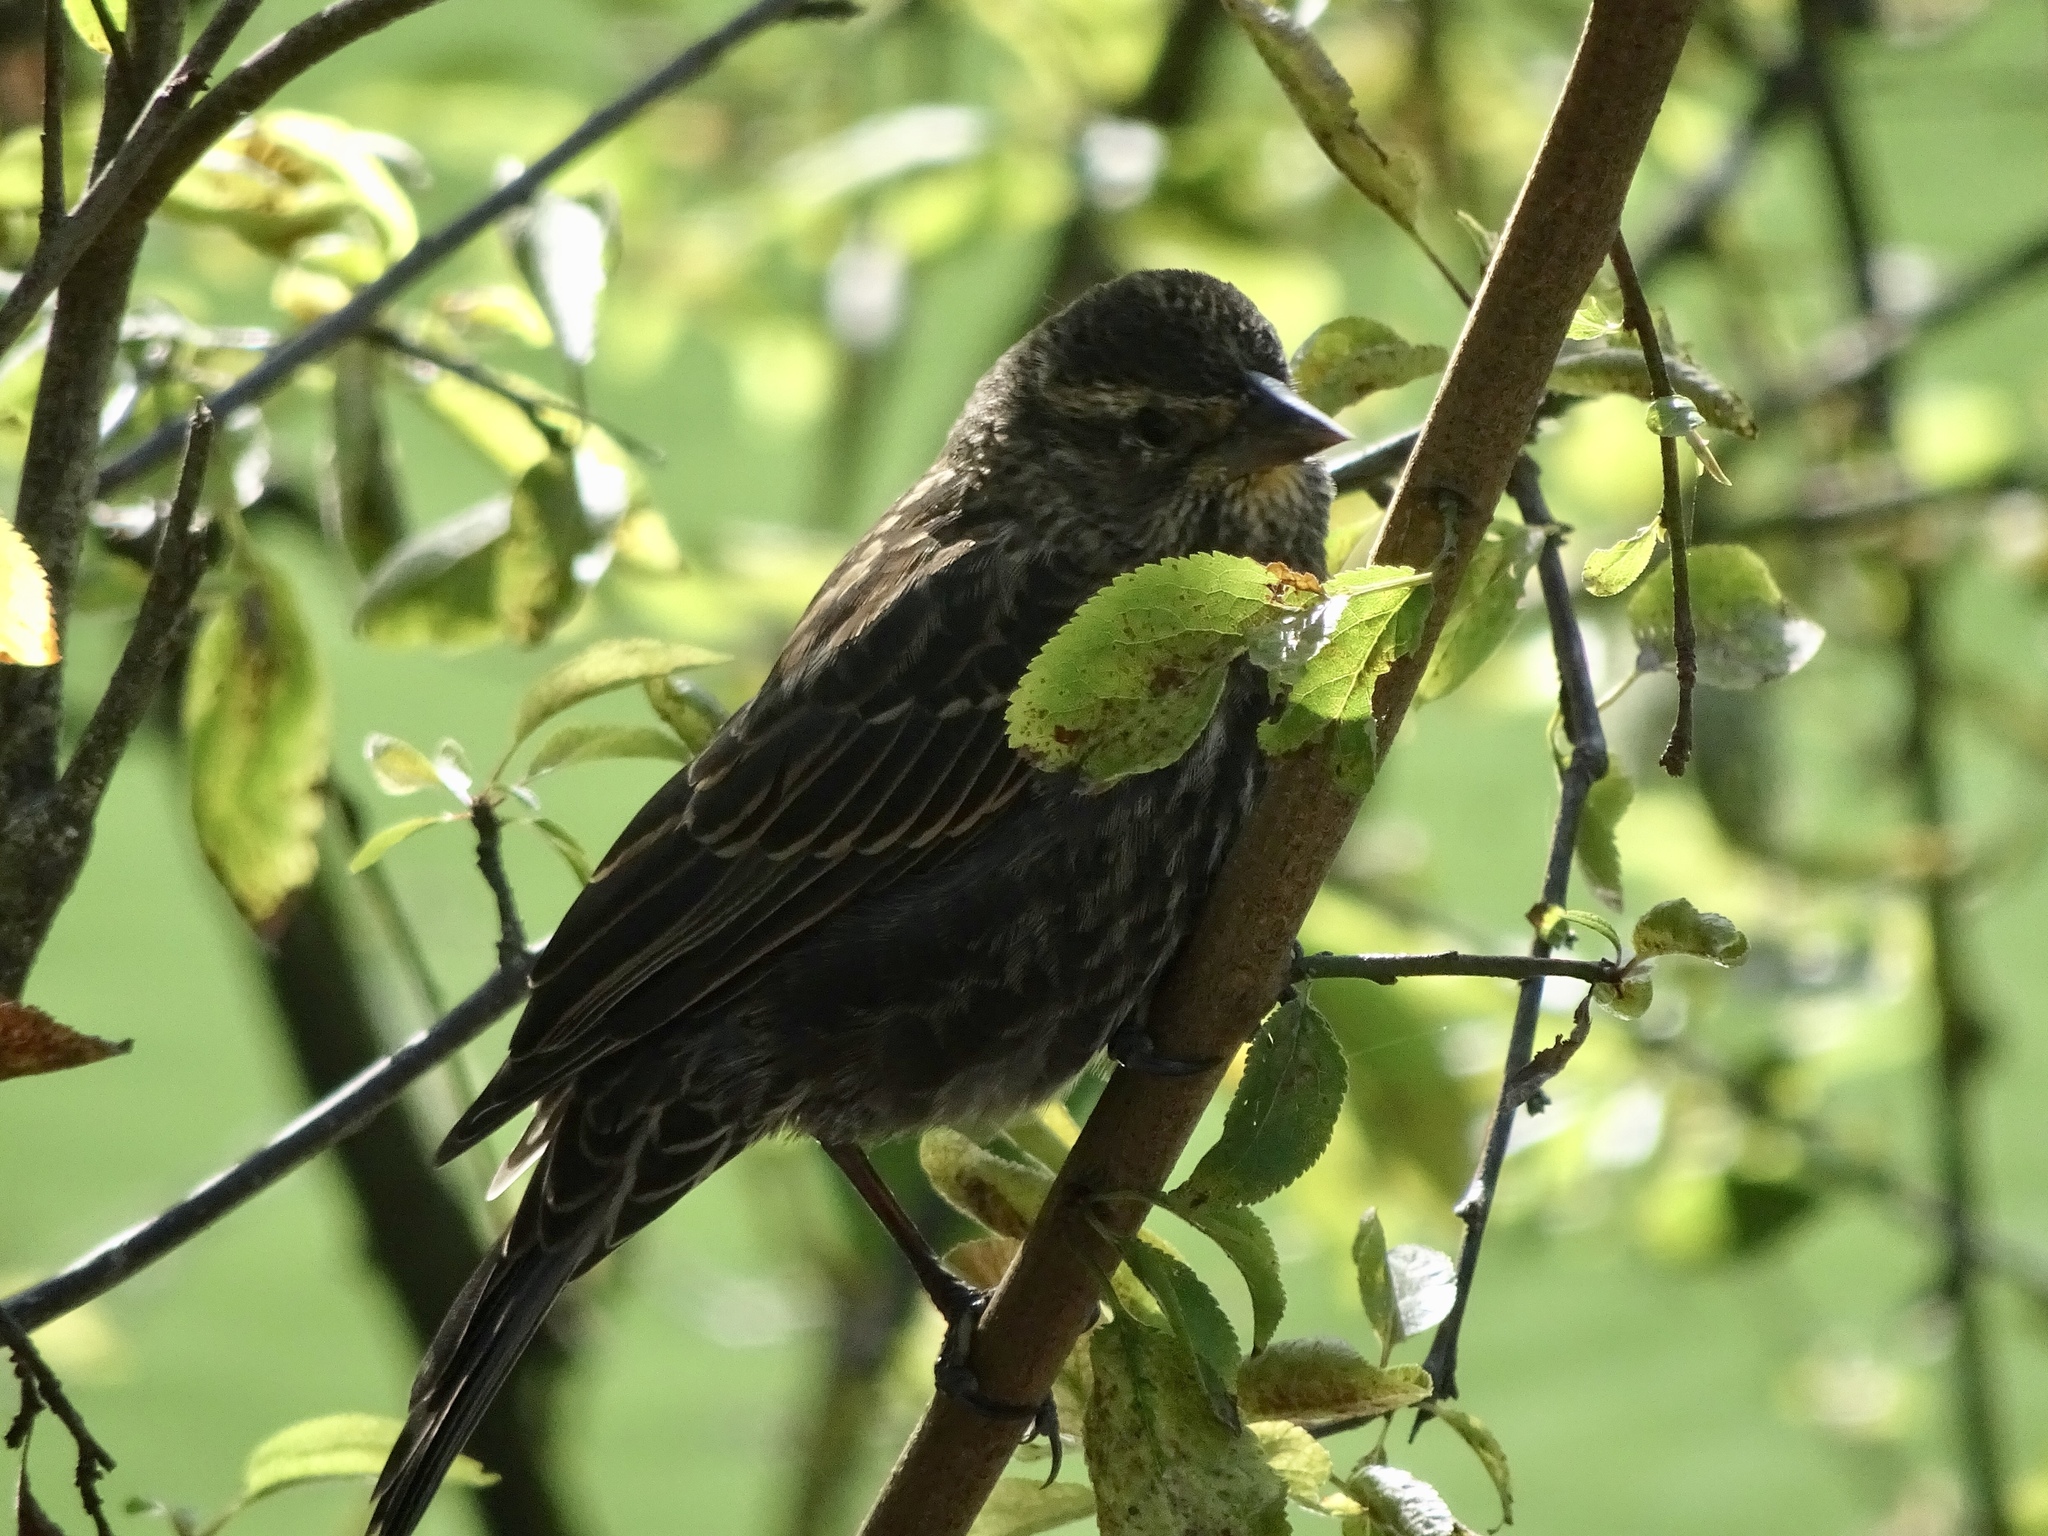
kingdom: Animalia
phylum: Chordata
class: Aves
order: Passeriformes
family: Icteridae
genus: Agelaius
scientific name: Agelaius phoeniceus
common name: Red-winged blackbird
